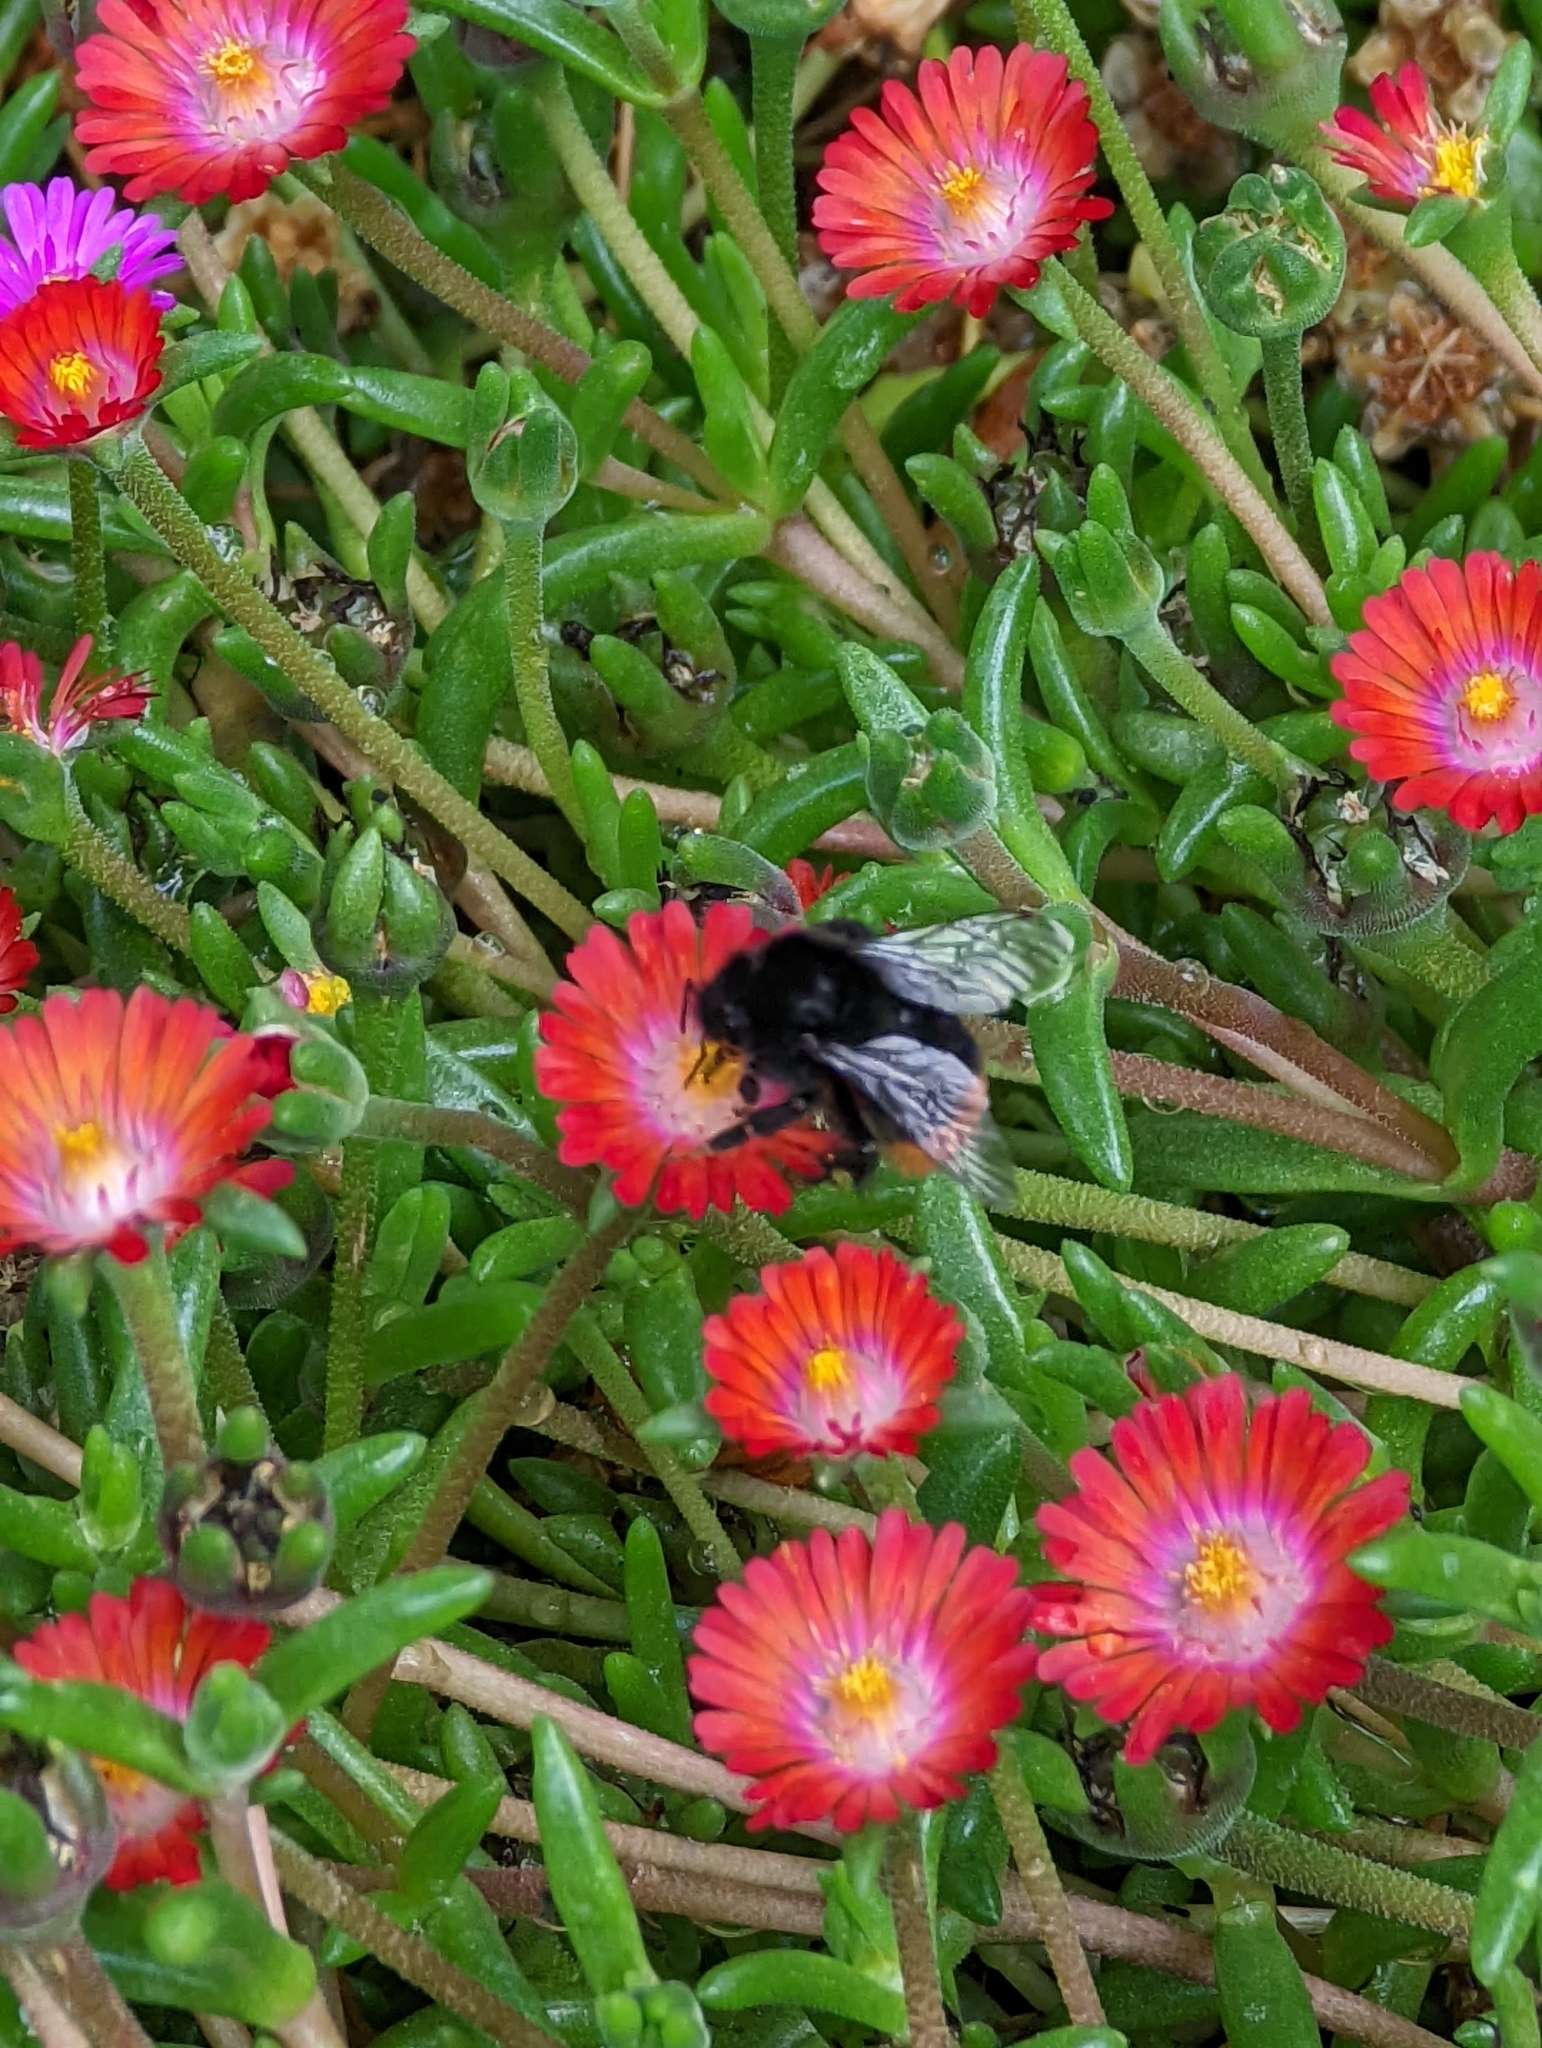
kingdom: Animalia
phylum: Arthropoda
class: Insecta
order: Hymenoptera
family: Apidae
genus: Bombus
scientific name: Bombus lapidarius
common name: Large red-tailed humble-bee
